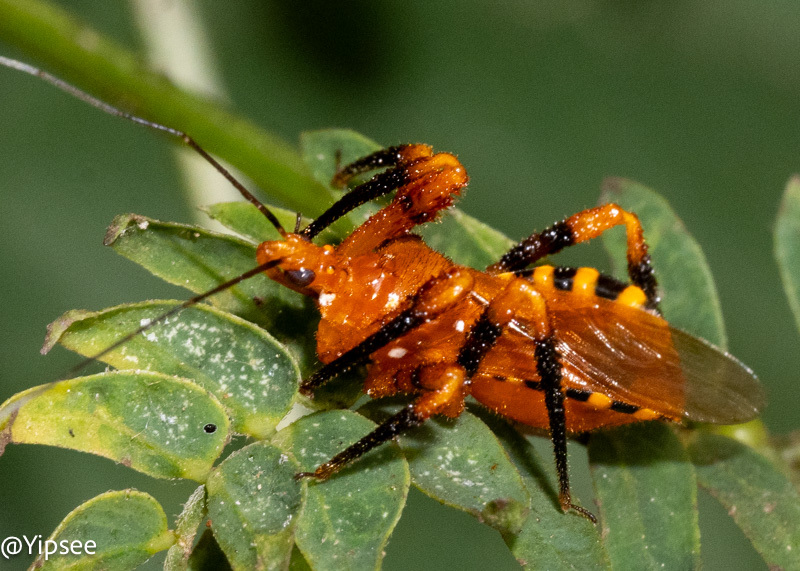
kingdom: Animalia
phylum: Arthropoda
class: Insecta
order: Hemiptera
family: Reduviidae
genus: Sphedanolestes
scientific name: Sphedanolestes xiongi
